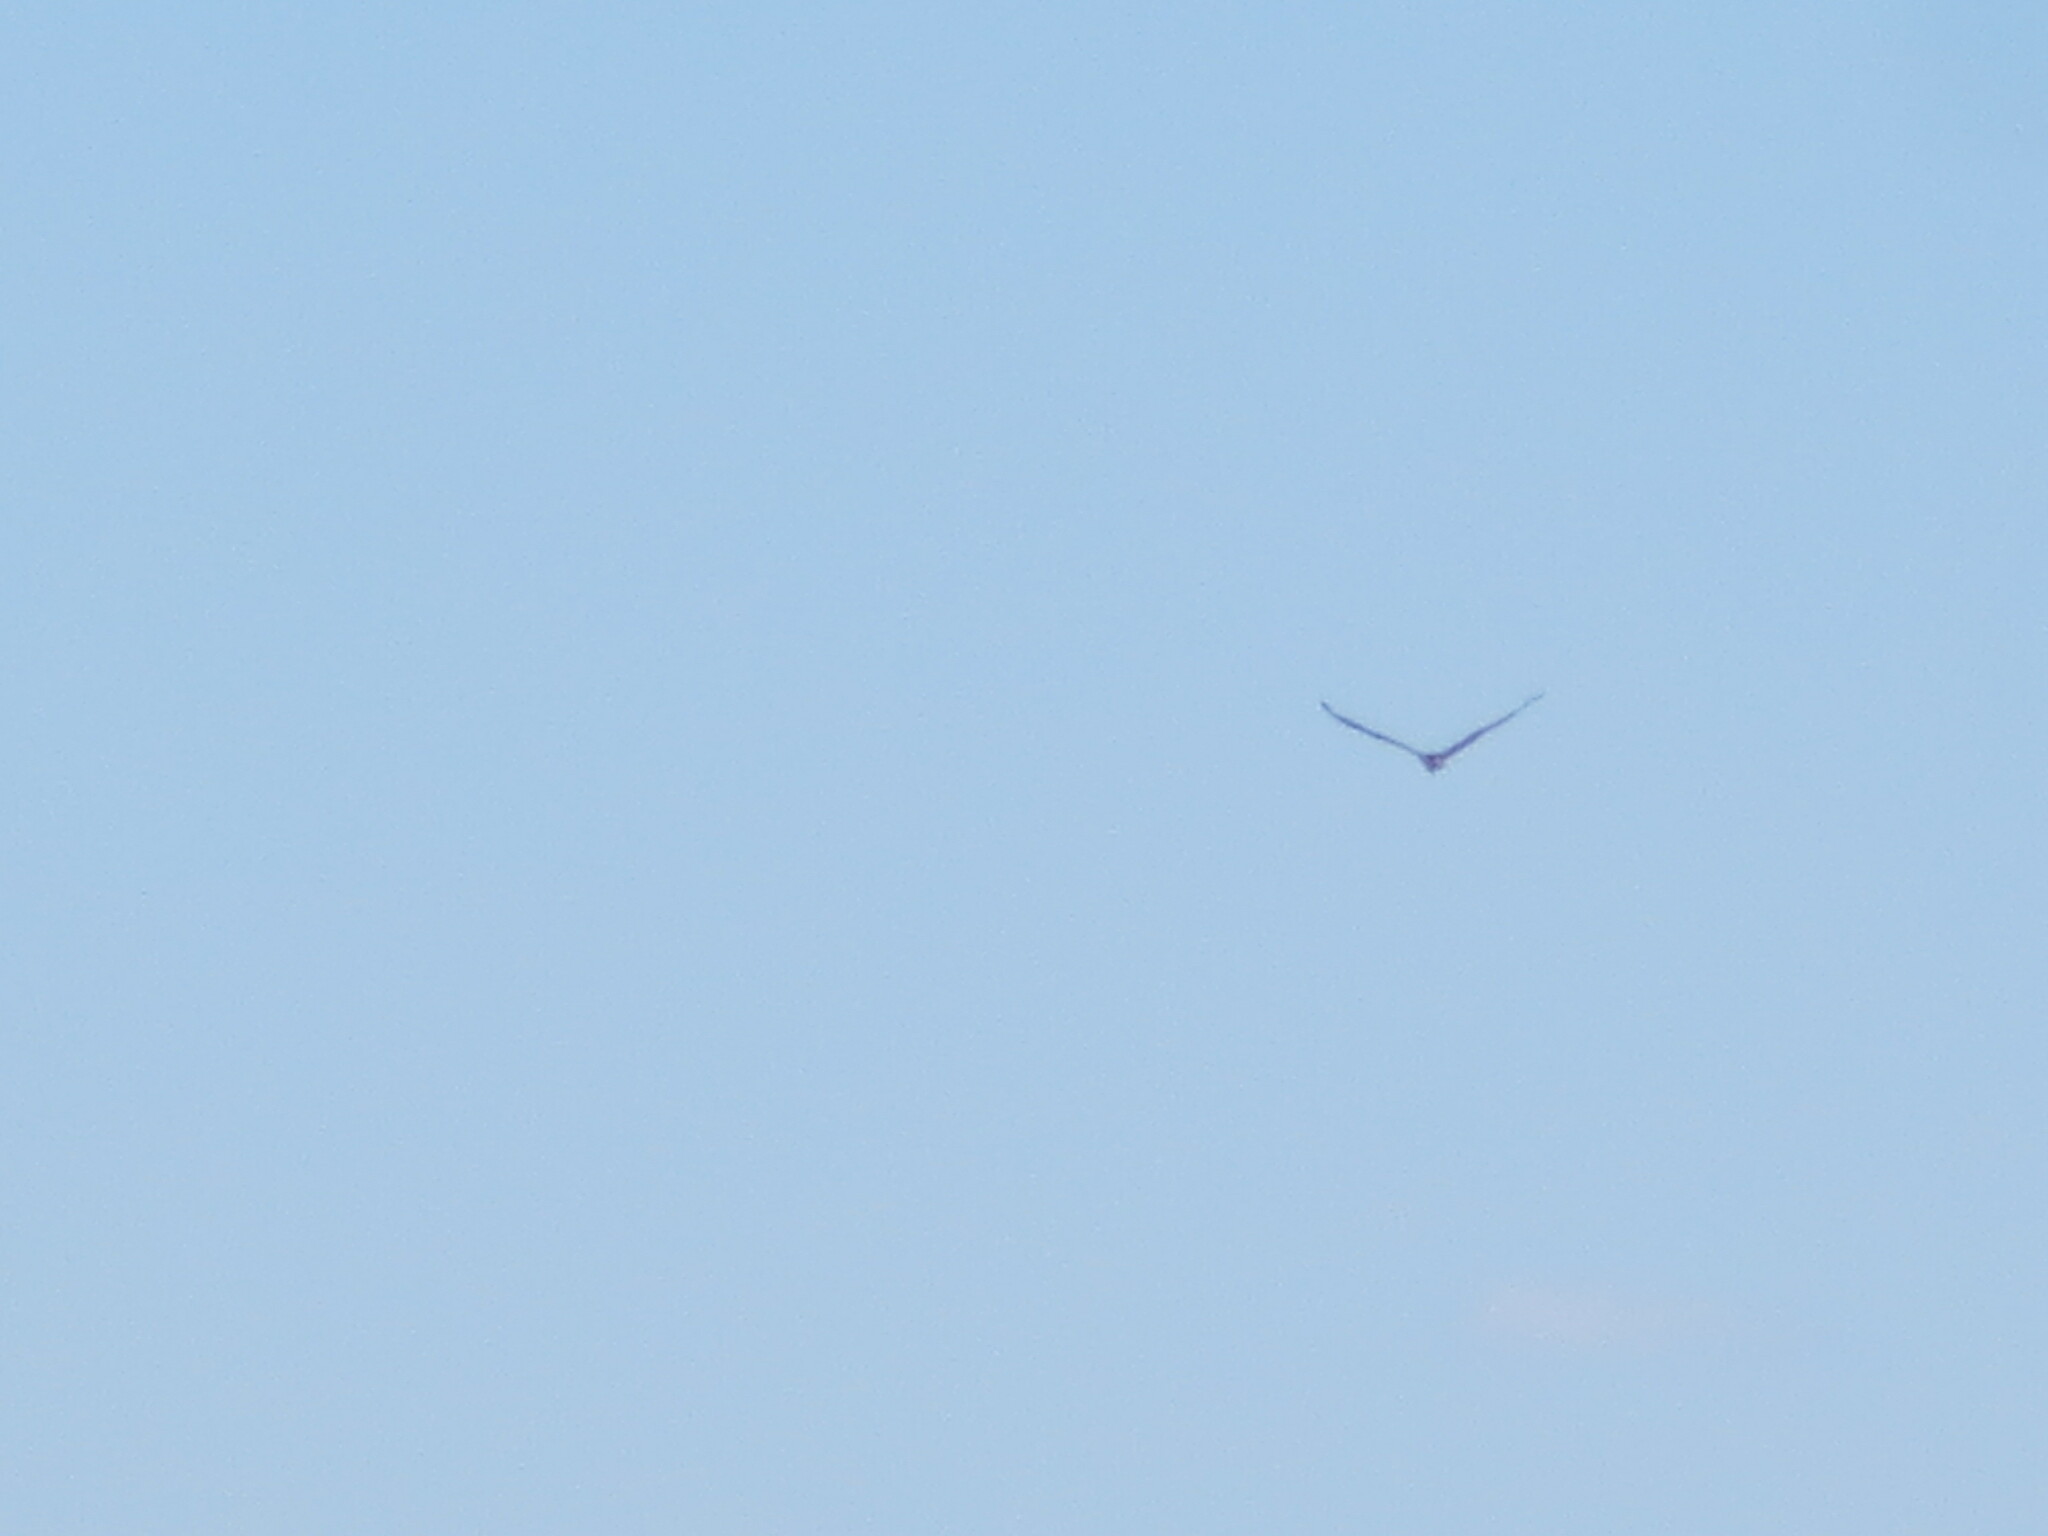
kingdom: Animalia
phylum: Chordata
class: Aves
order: Accipitriformes
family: Pandionidae
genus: Pandion
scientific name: Pandion haliaetus
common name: Osprey
